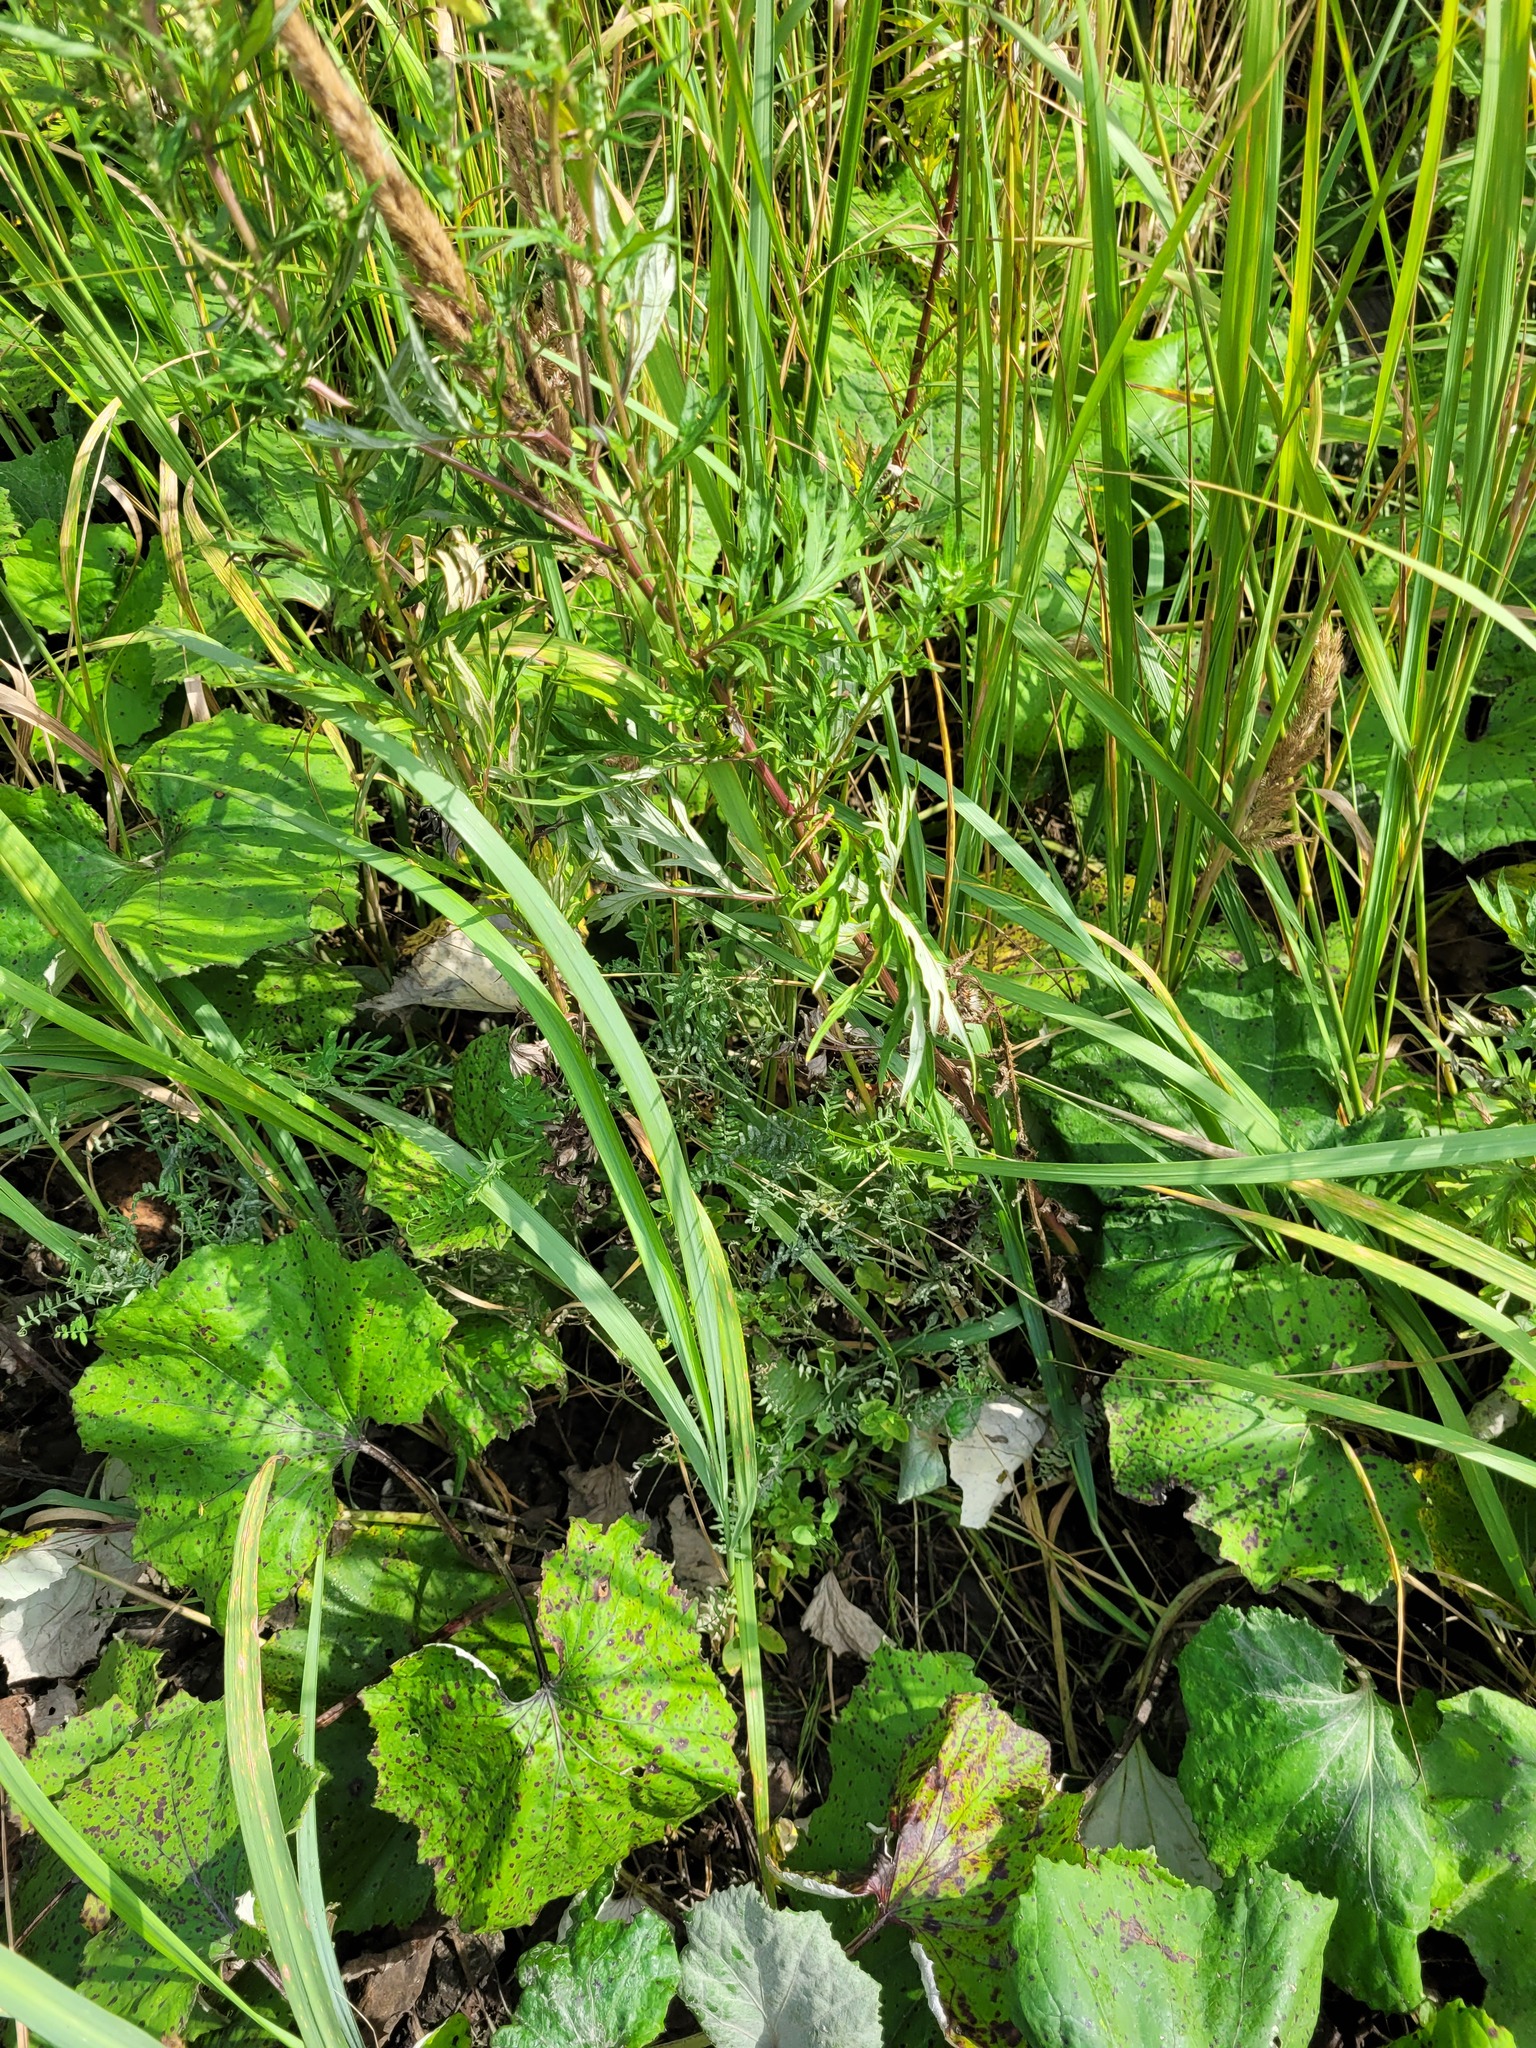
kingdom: Plantae
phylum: Tracheophyta
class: Magnoliopsida
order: Fabales
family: Fabaceae
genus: Vicia
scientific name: Vicia cracca
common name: Bird vetch
